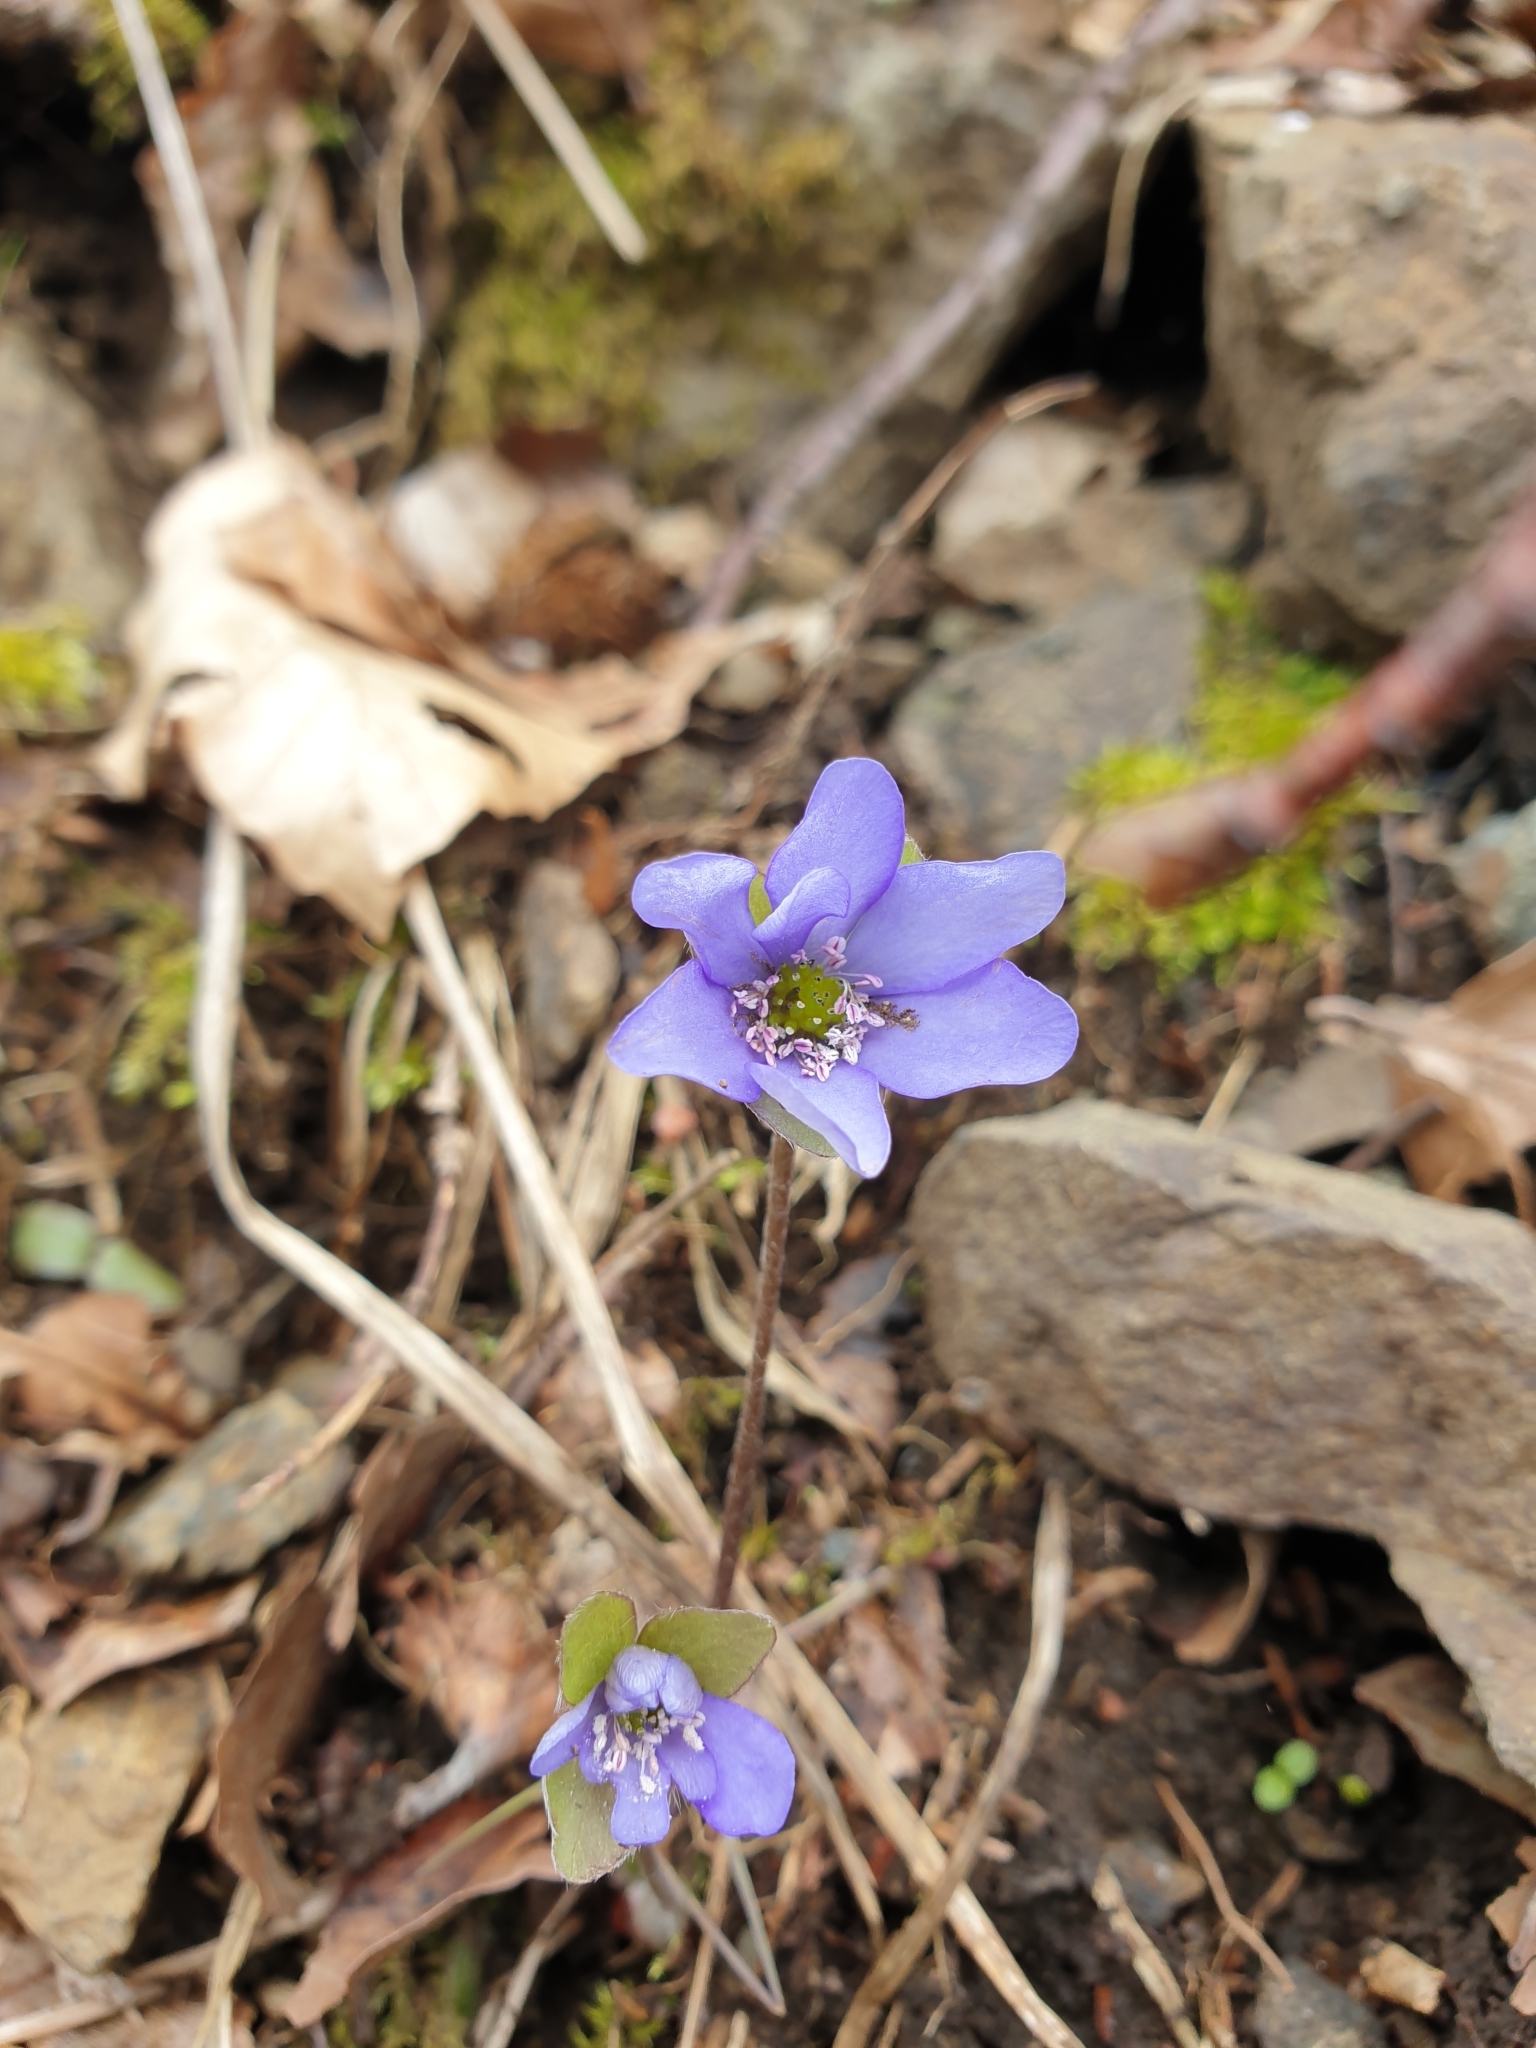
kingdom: Plantae
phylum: Tracheophyta
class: Magnoliopsida
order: Ranunculales
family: Ranunculaceae
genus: Hepatica
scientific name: Hepatica nobilis
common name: Liverleaf
